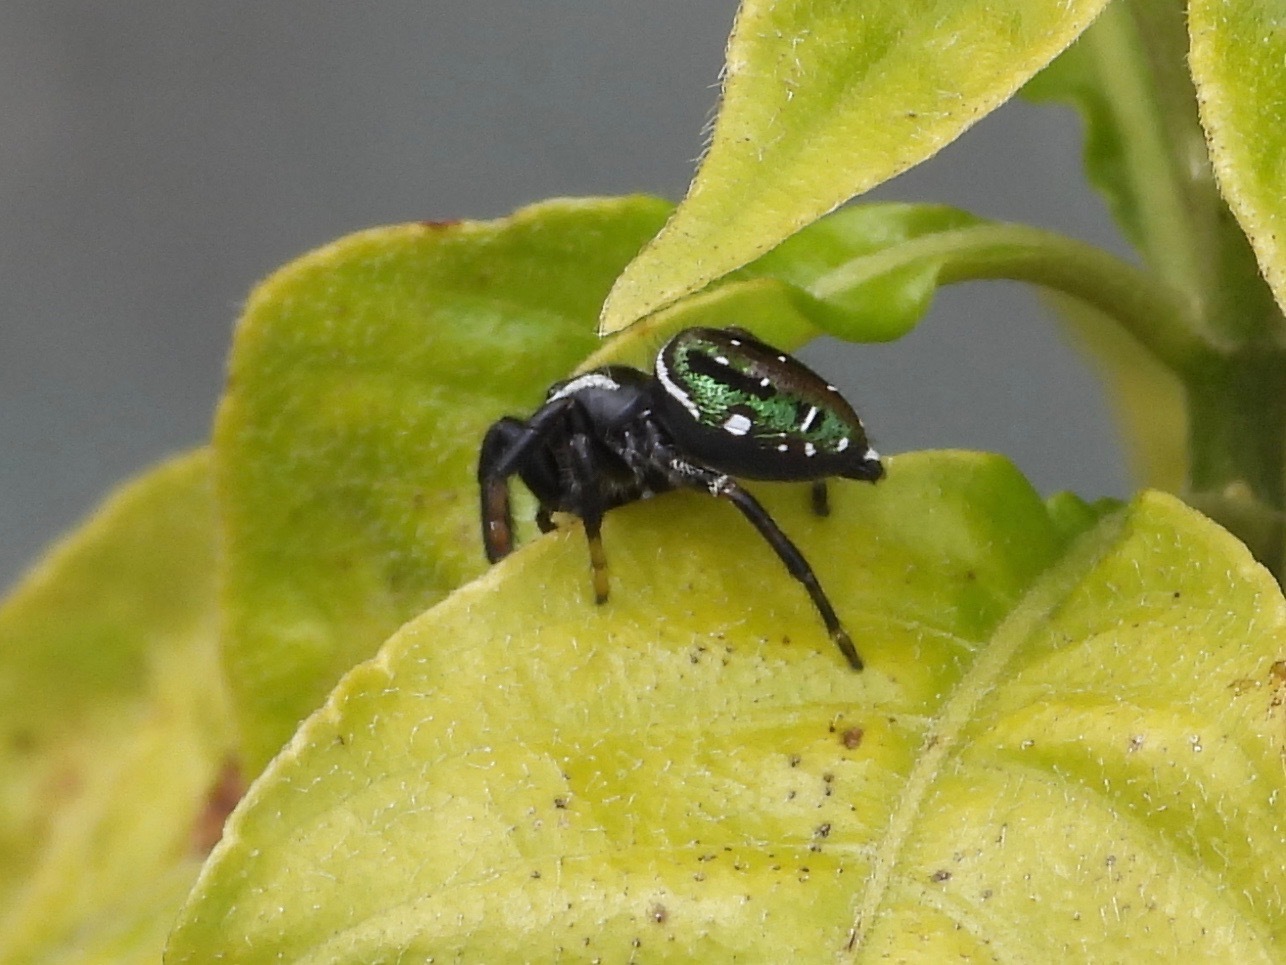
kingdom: Animalia
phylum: Arthropoda
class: Arachnida
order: Araneae
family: Salticidae
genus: Paraphidippus
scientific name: Paraphidippus aurantius
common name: Jumping spiders
